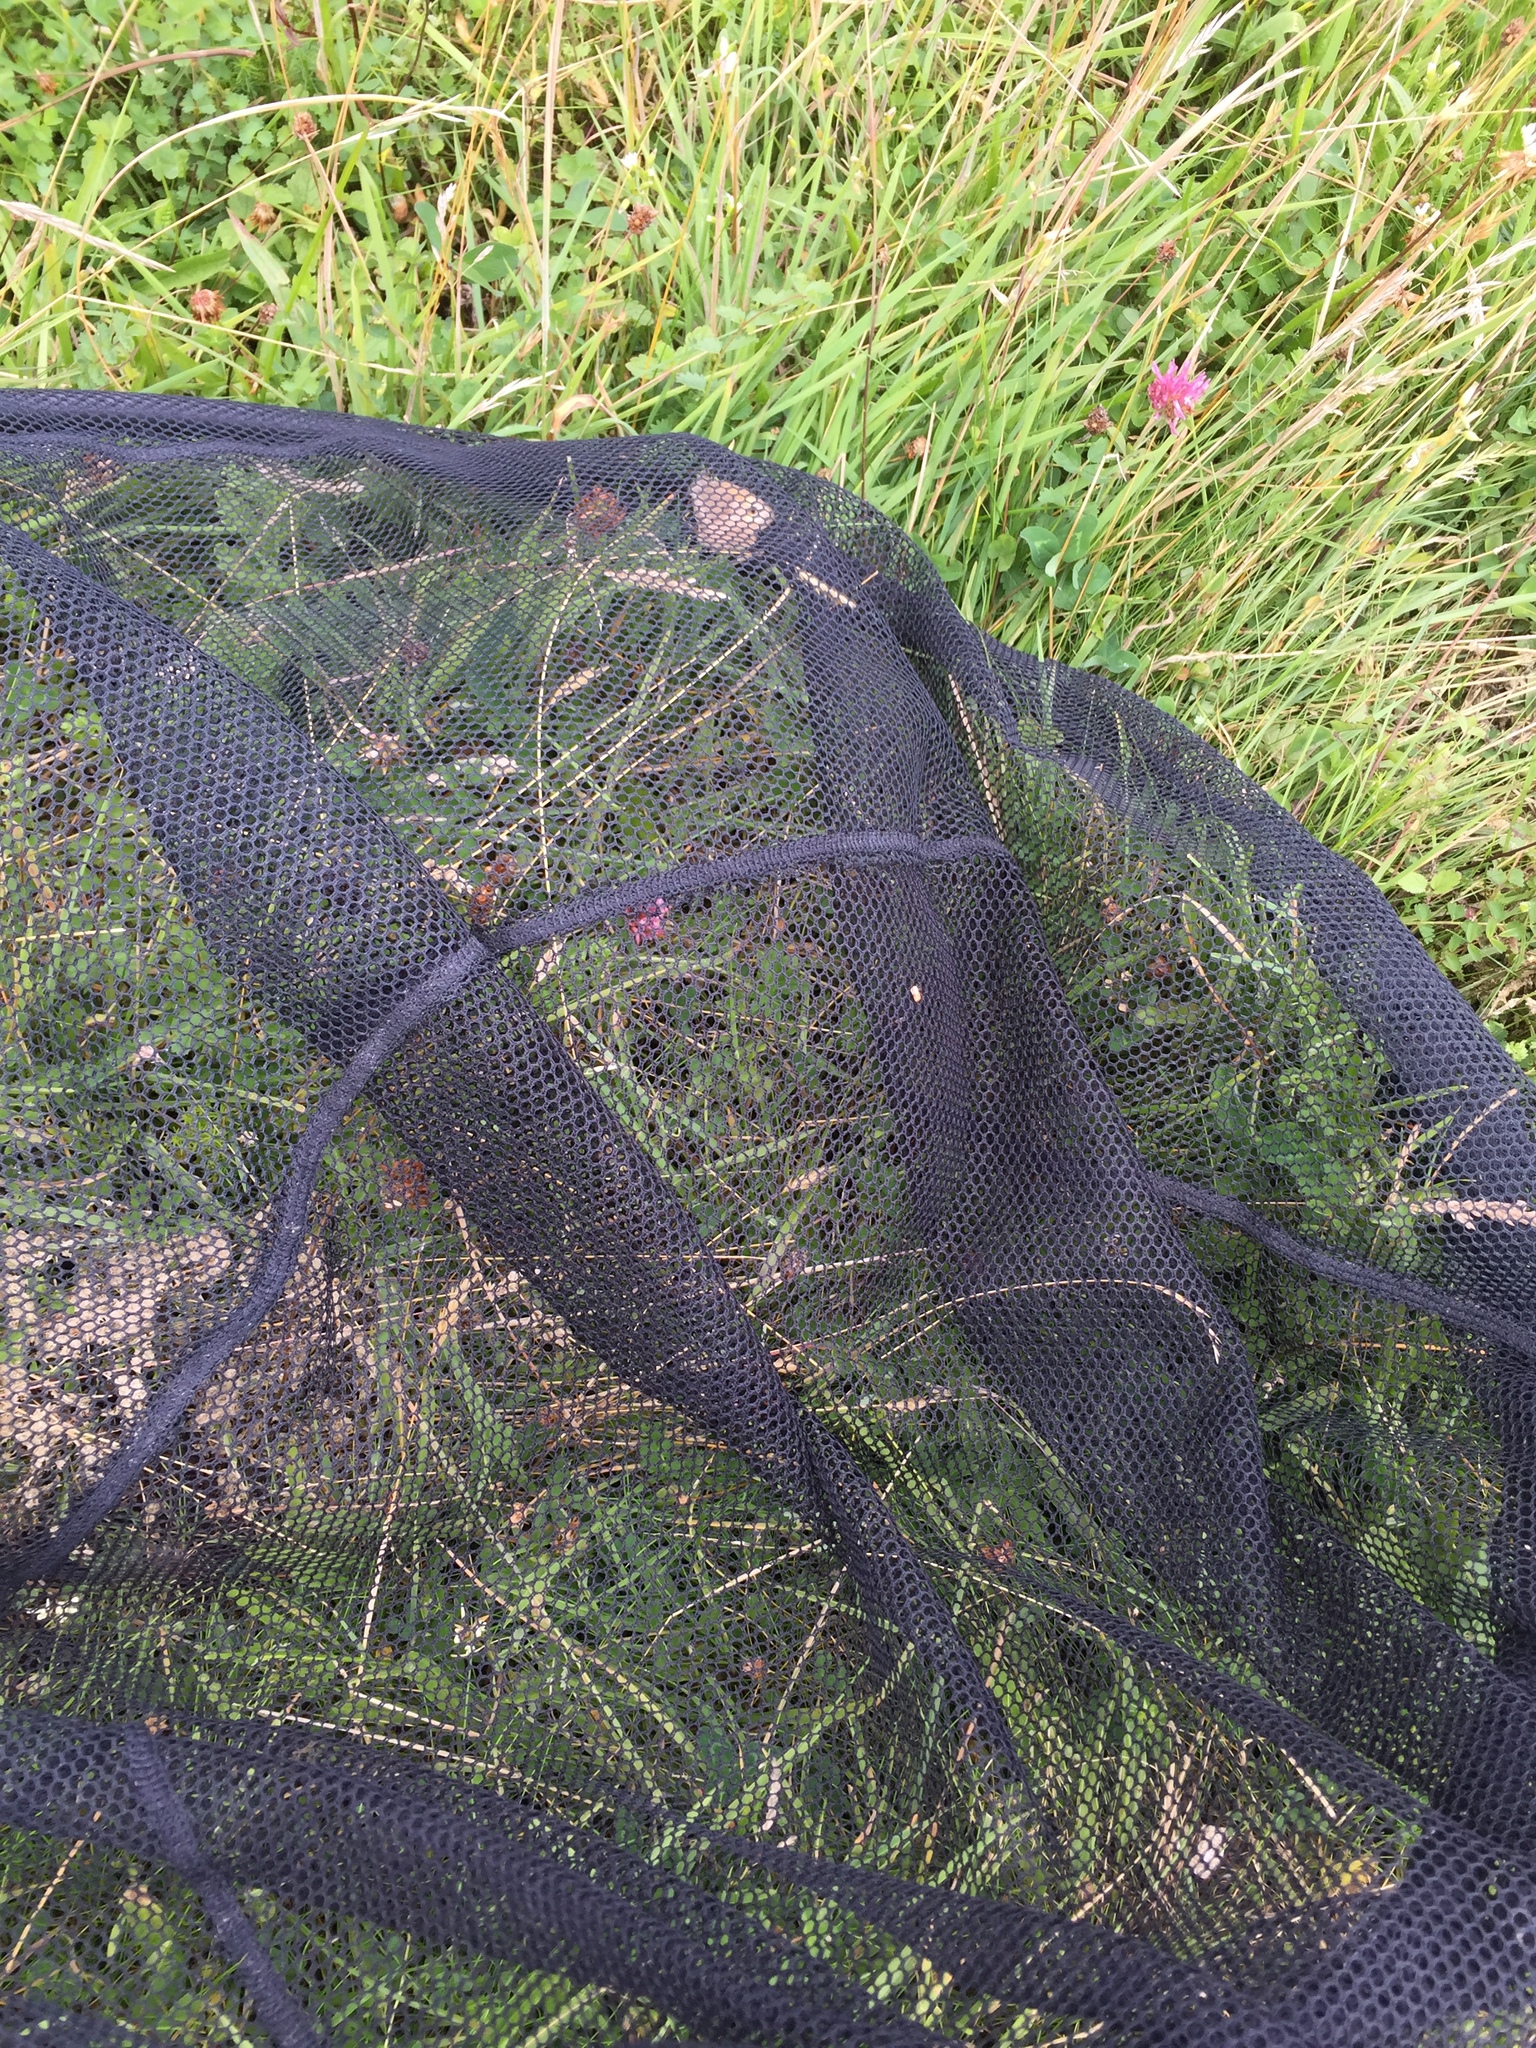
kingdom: Animalia
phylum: Arthropoda
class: Insecta
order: Lepidoptera
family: Nymphalidae
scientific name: Nymphalidae
